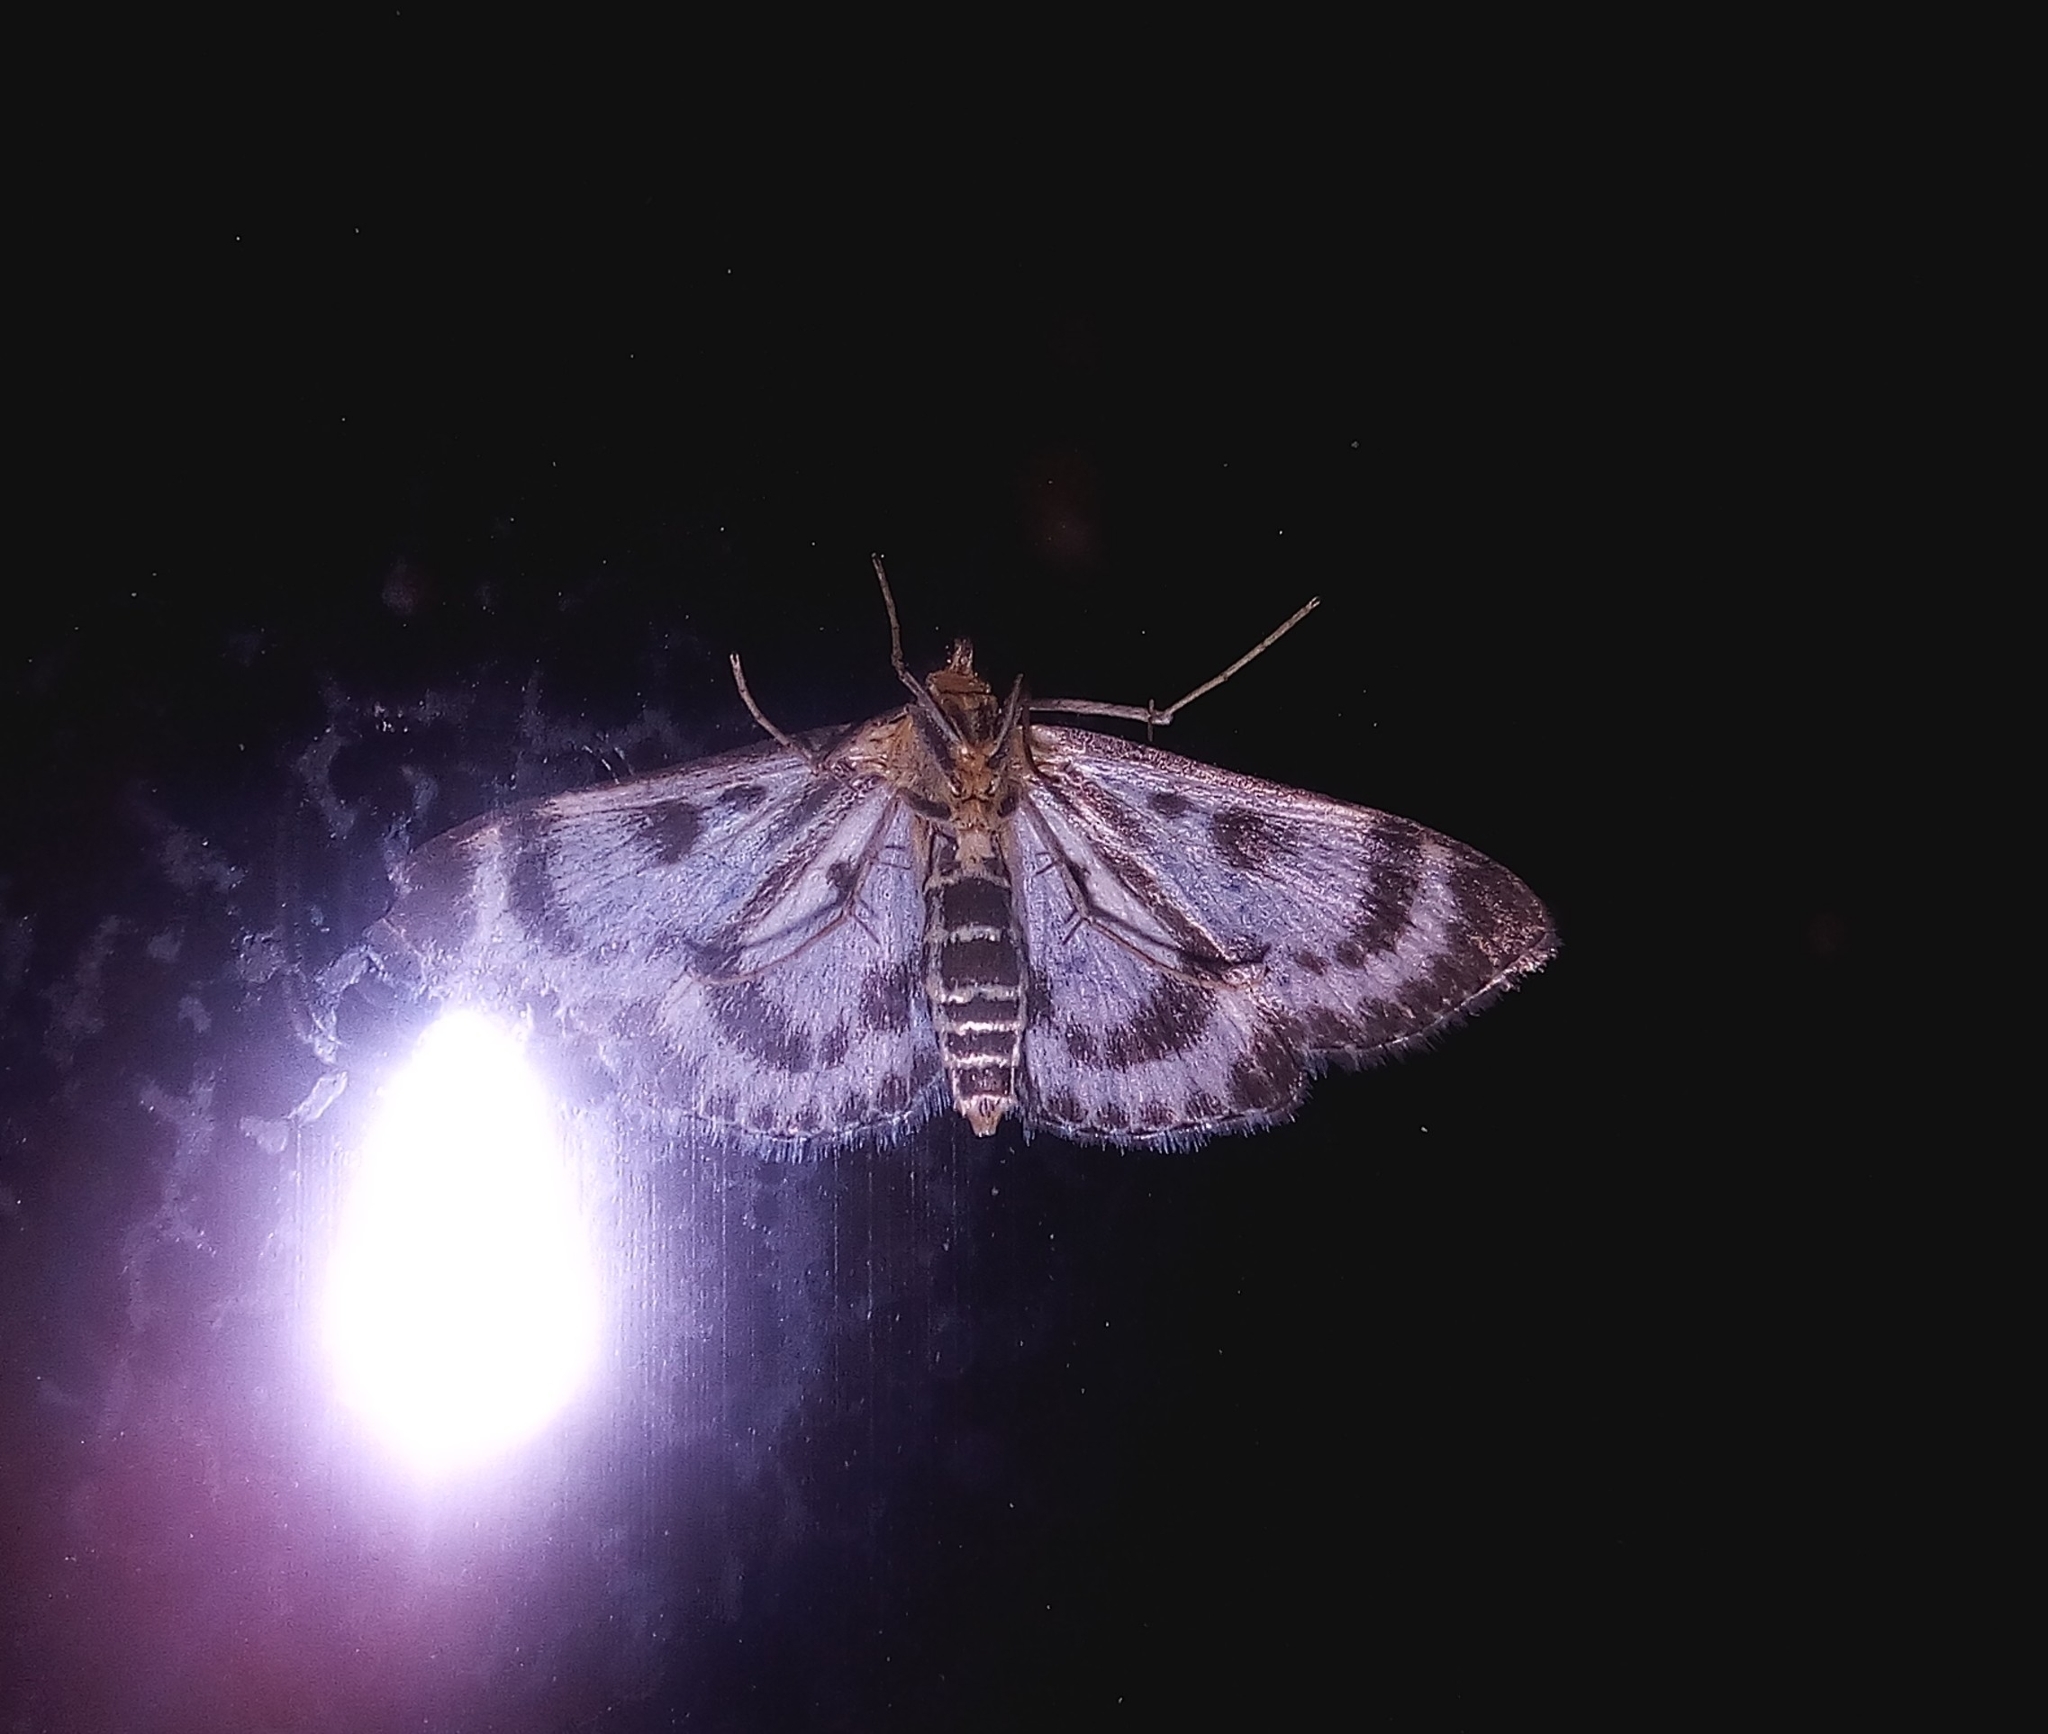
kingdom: Animalia
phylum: Arthropoda
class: Insecta
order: Lepidoptera
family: Crambidae
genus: Anania
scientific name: Anania hortulata
